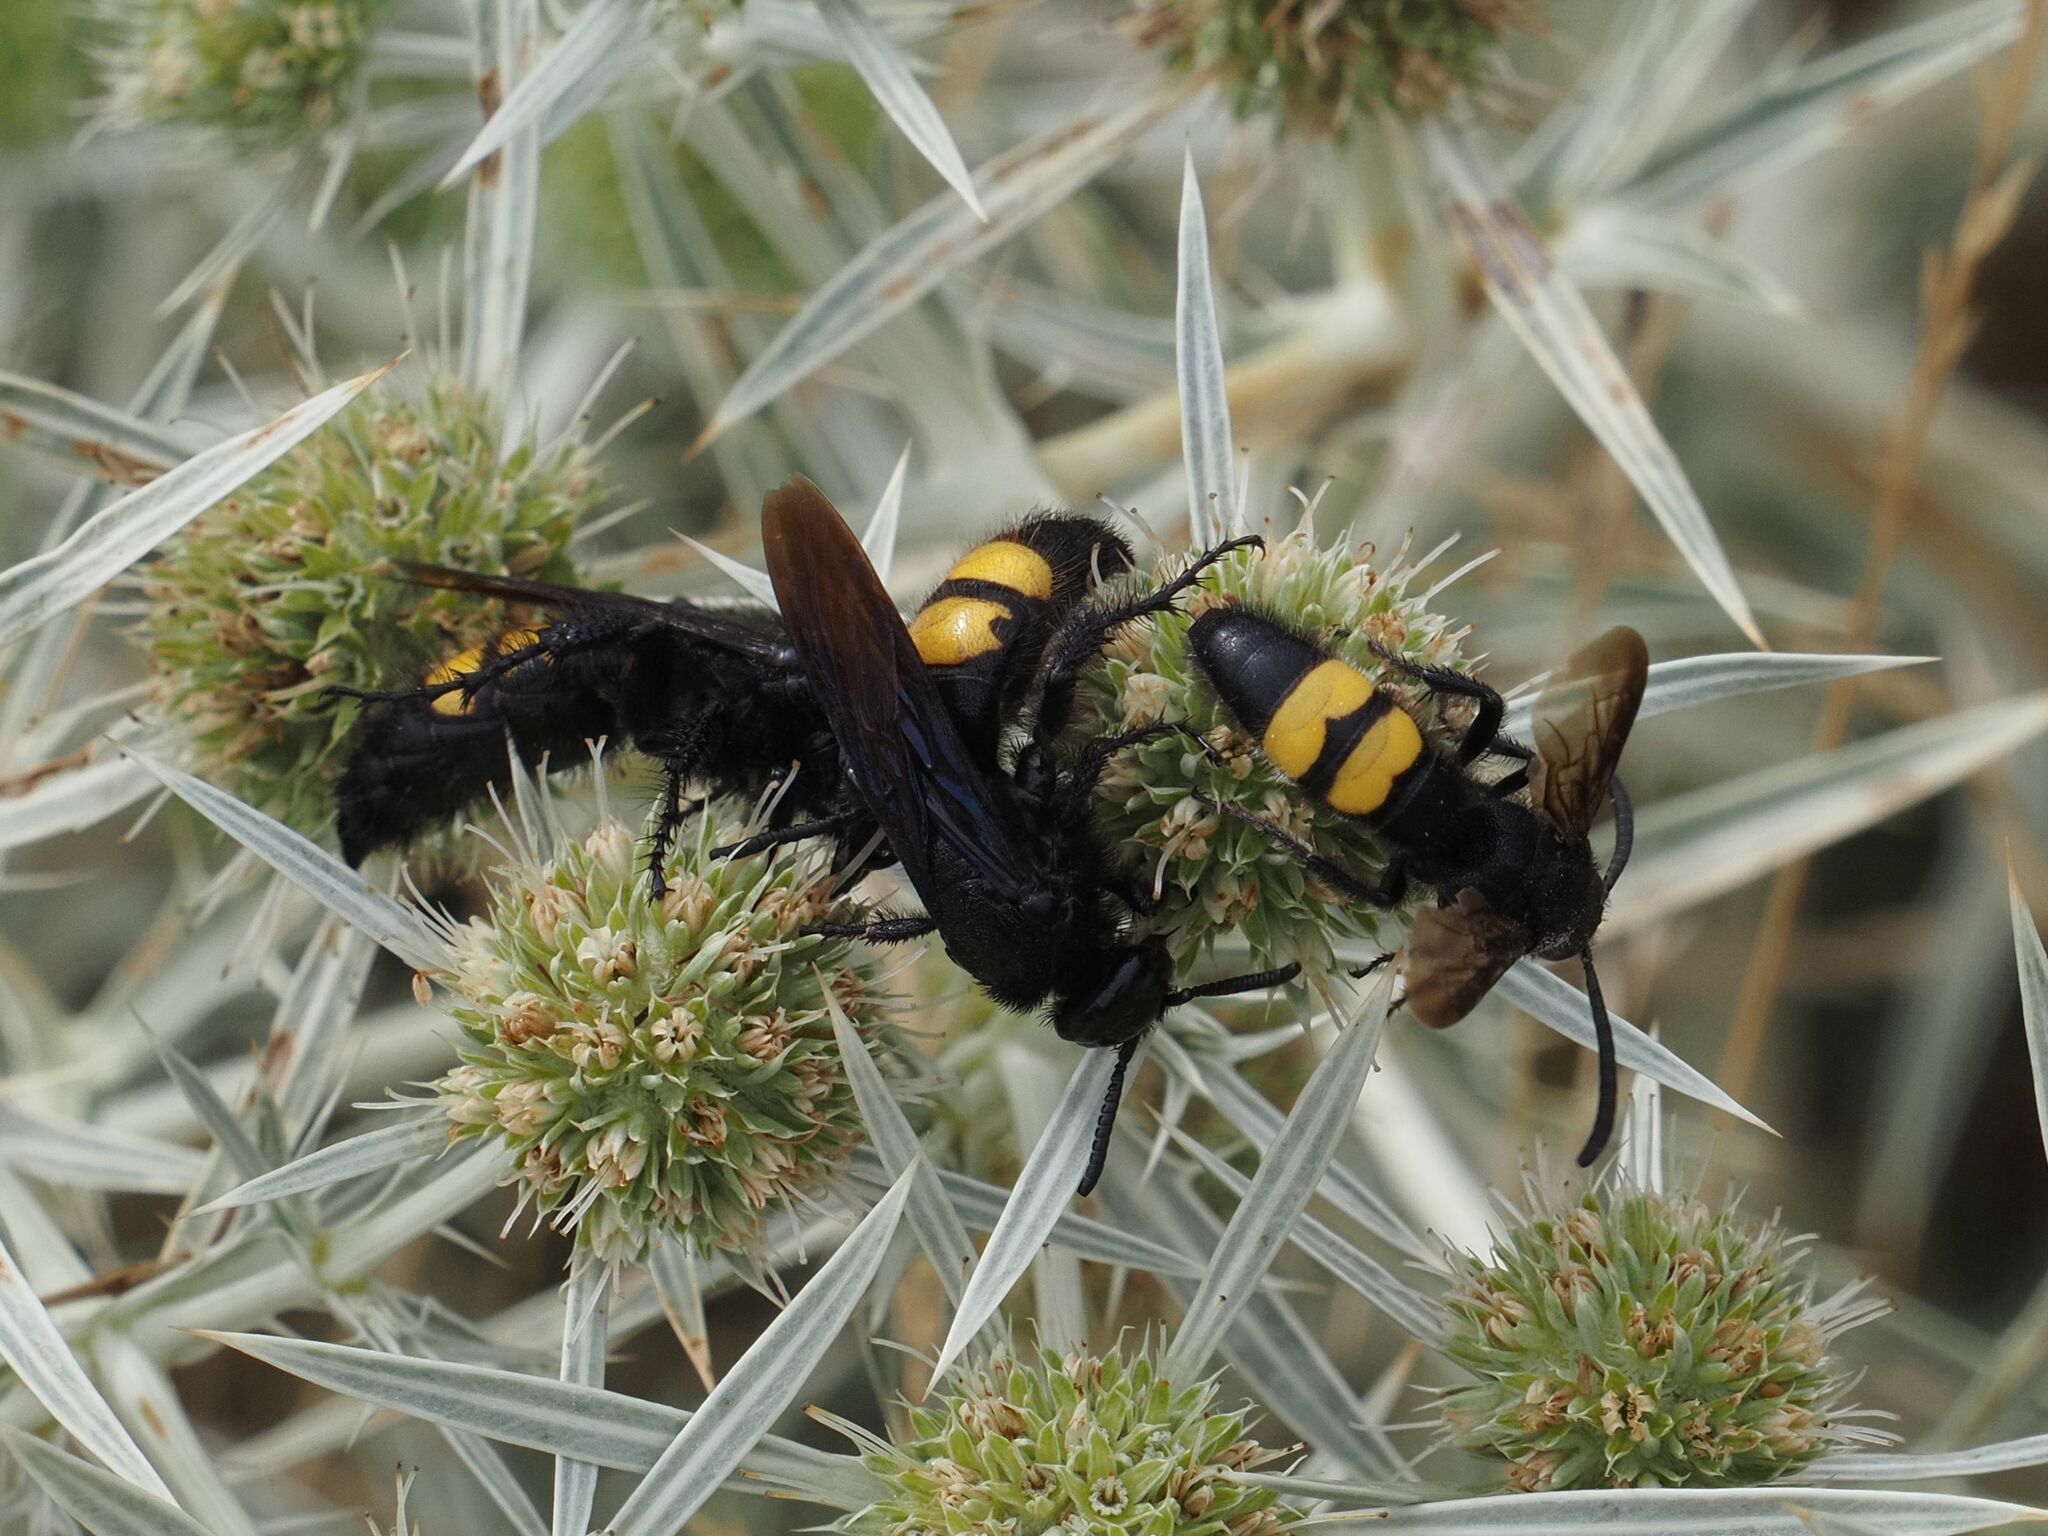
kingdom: Animalia
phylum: Arthropoda
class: Insecta
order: Hymenoptera
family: Scoliidae
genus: Scolia
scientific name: Scolia hirta
